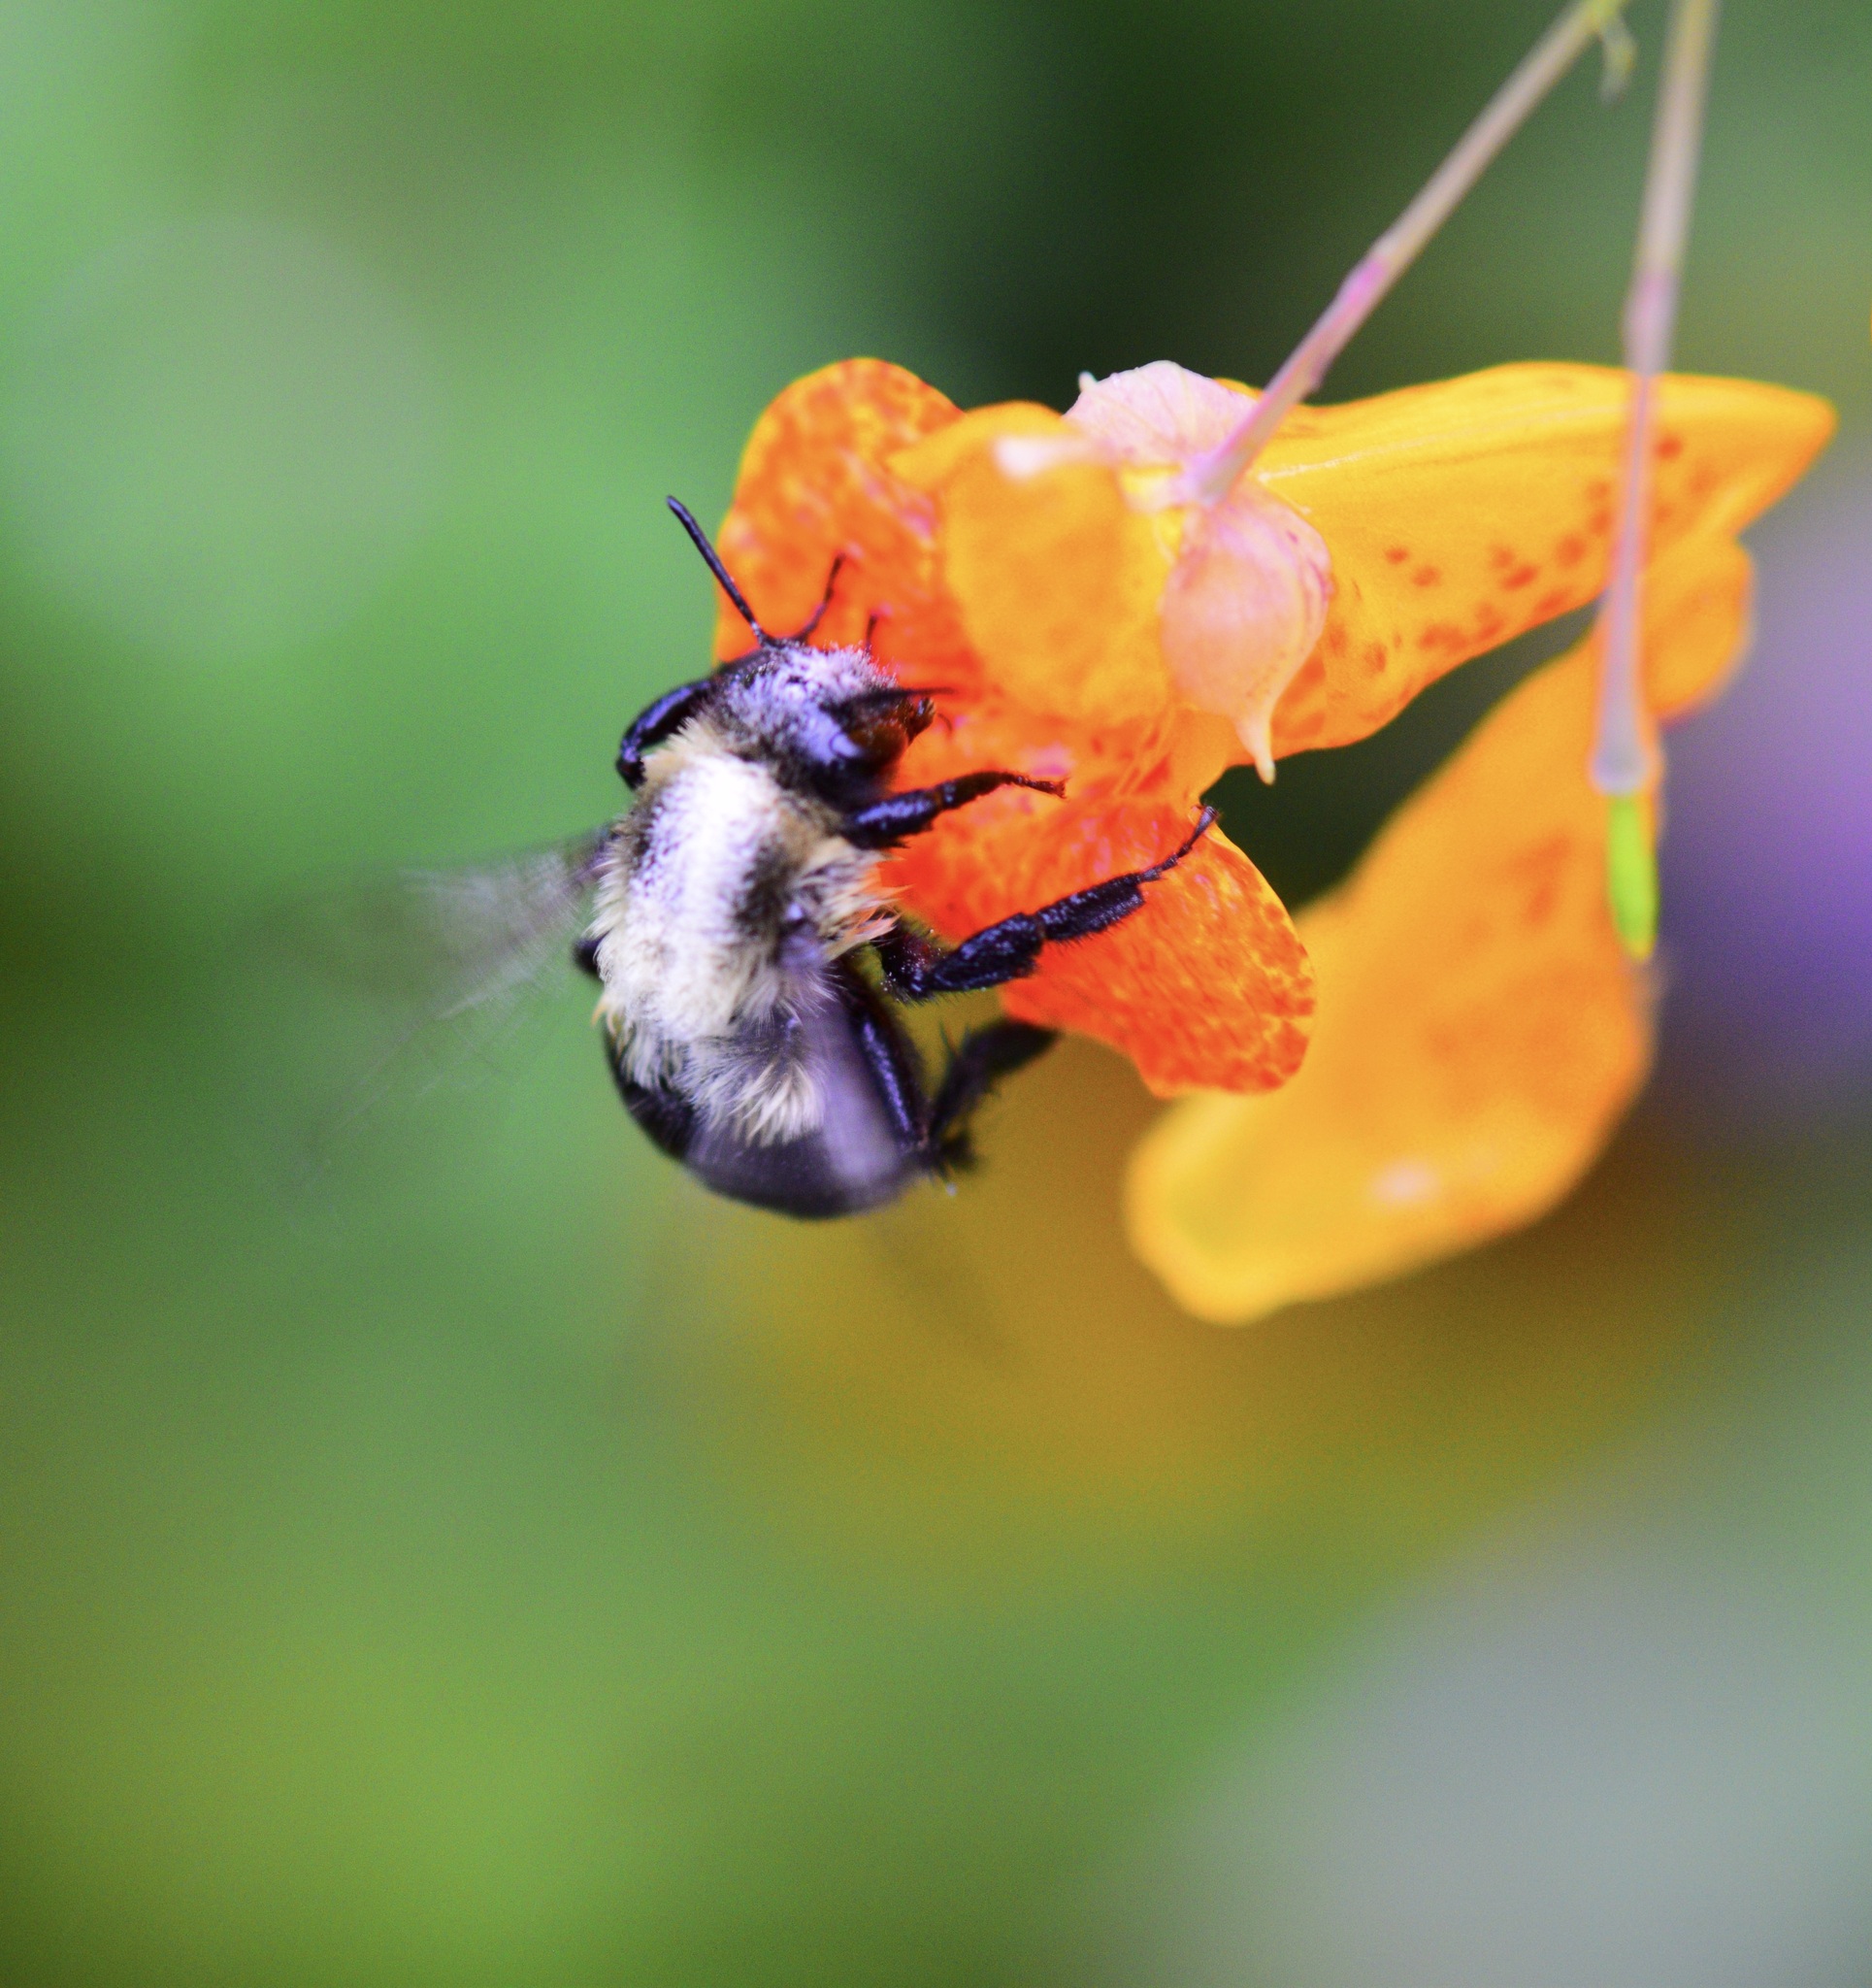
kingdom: Animalia
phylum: Arthropoda
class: Insecta
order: Hymenoptera
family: Apidae
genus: Bombus
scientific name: Bombus impatiens
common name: Common eastern bumble bee
